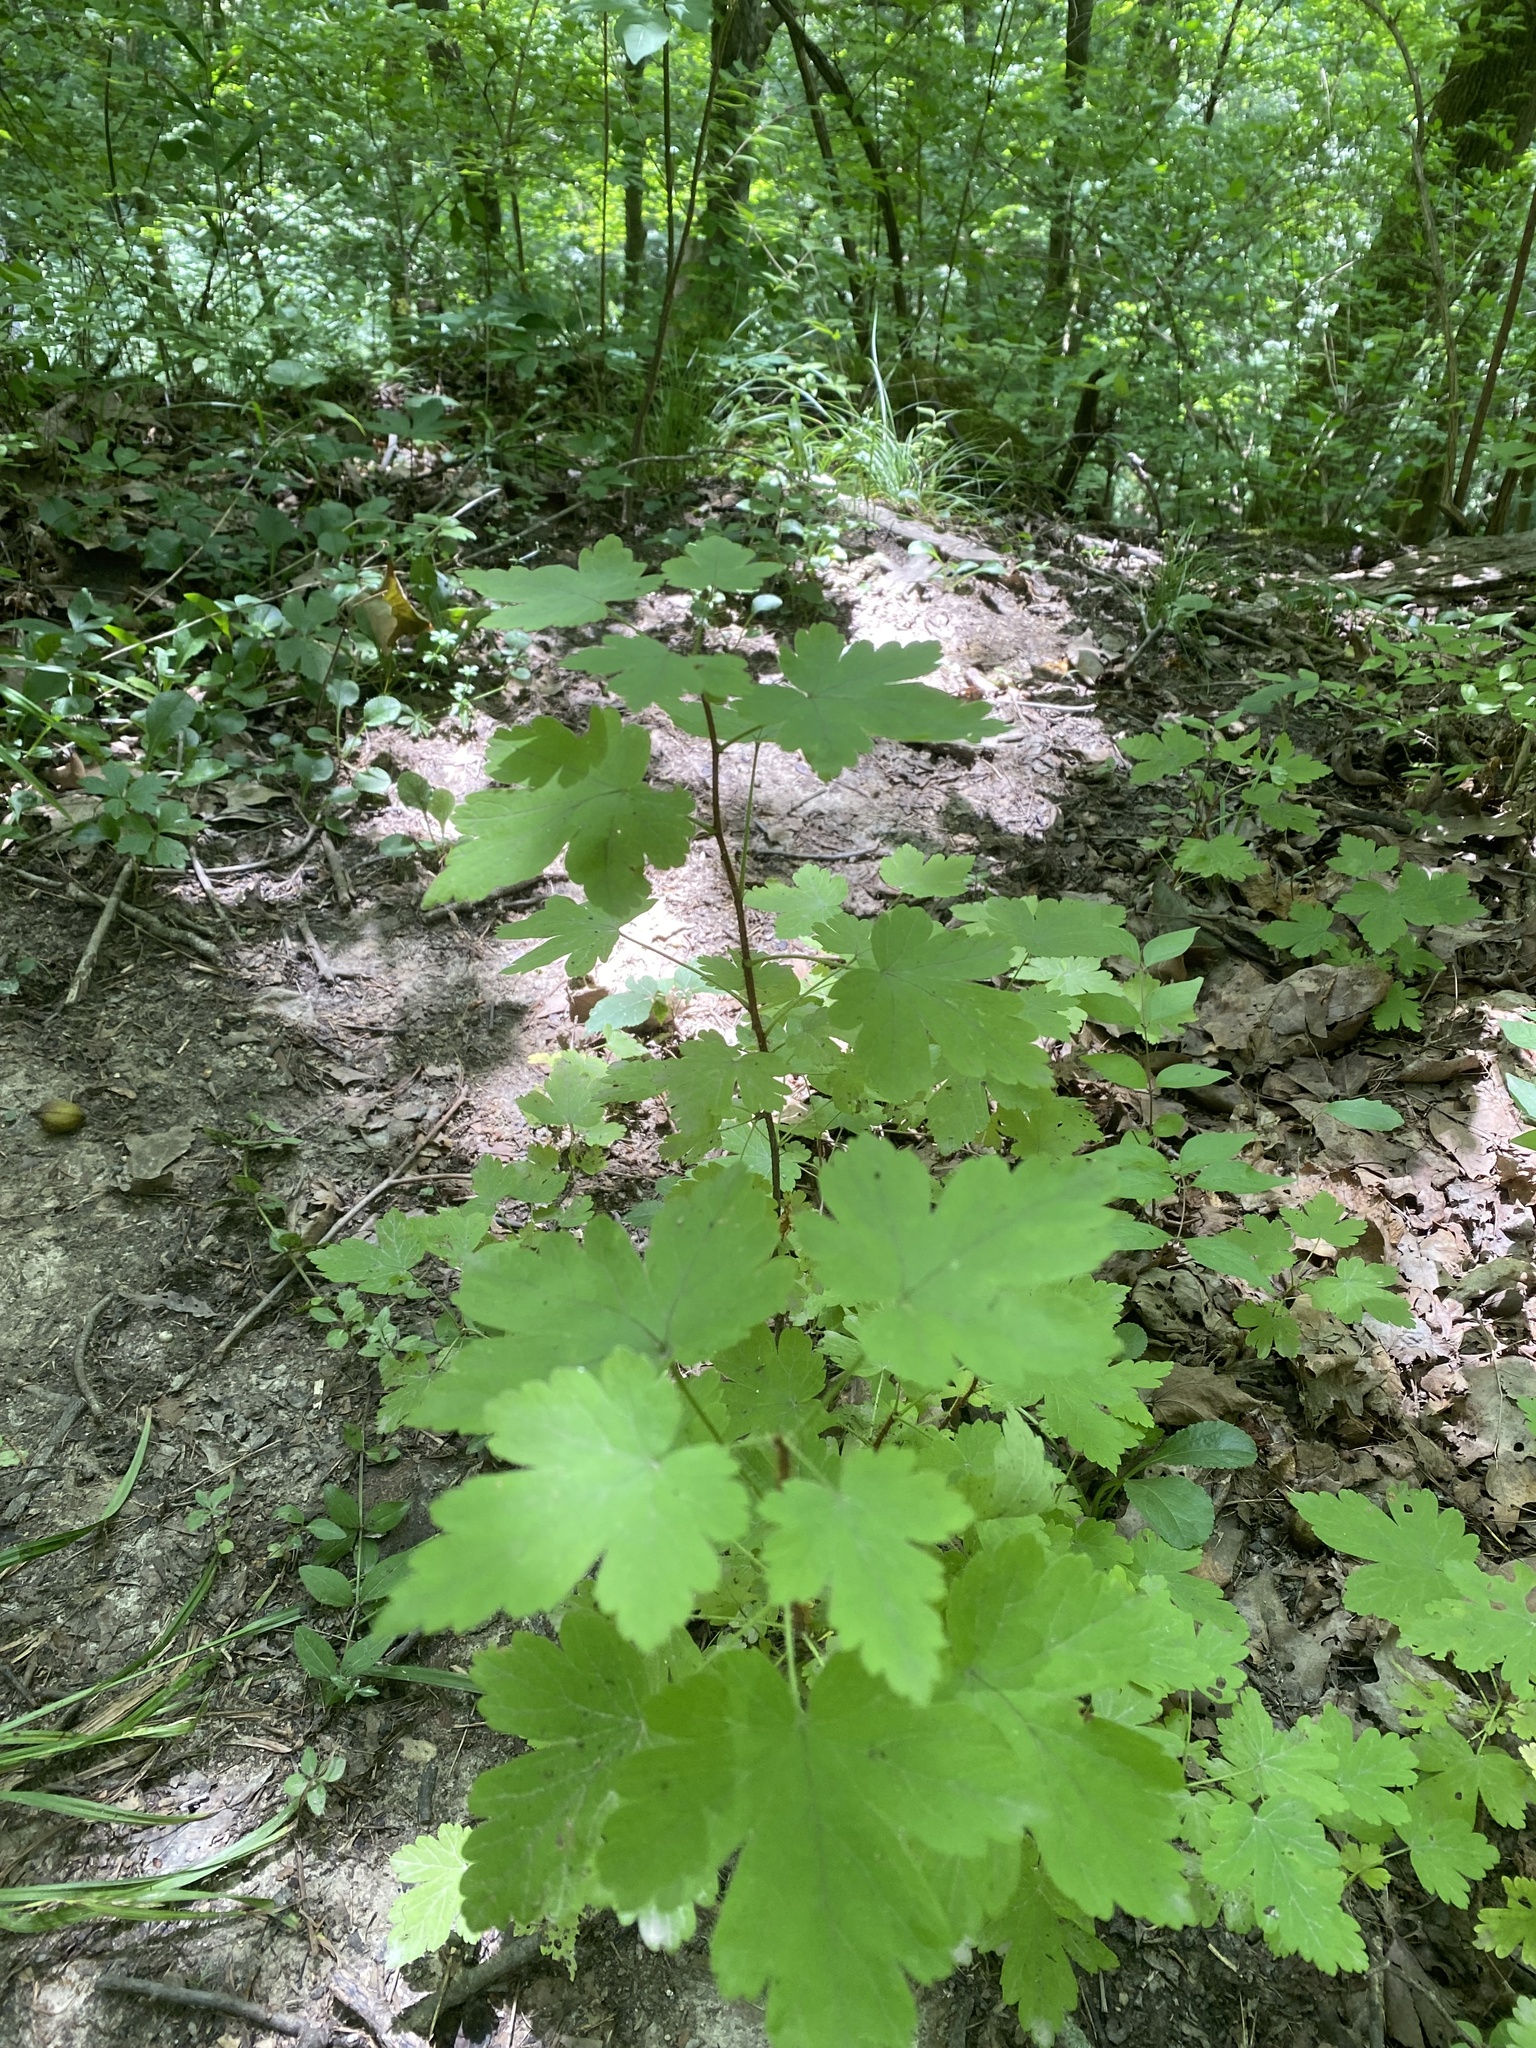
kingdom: Plantae
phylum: Tracheophyta
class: Magnoliopsida
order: Saxifragales
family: Grossulariaceae
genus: Ribes
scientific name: Ribes cynosbati
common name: American gooseberry
